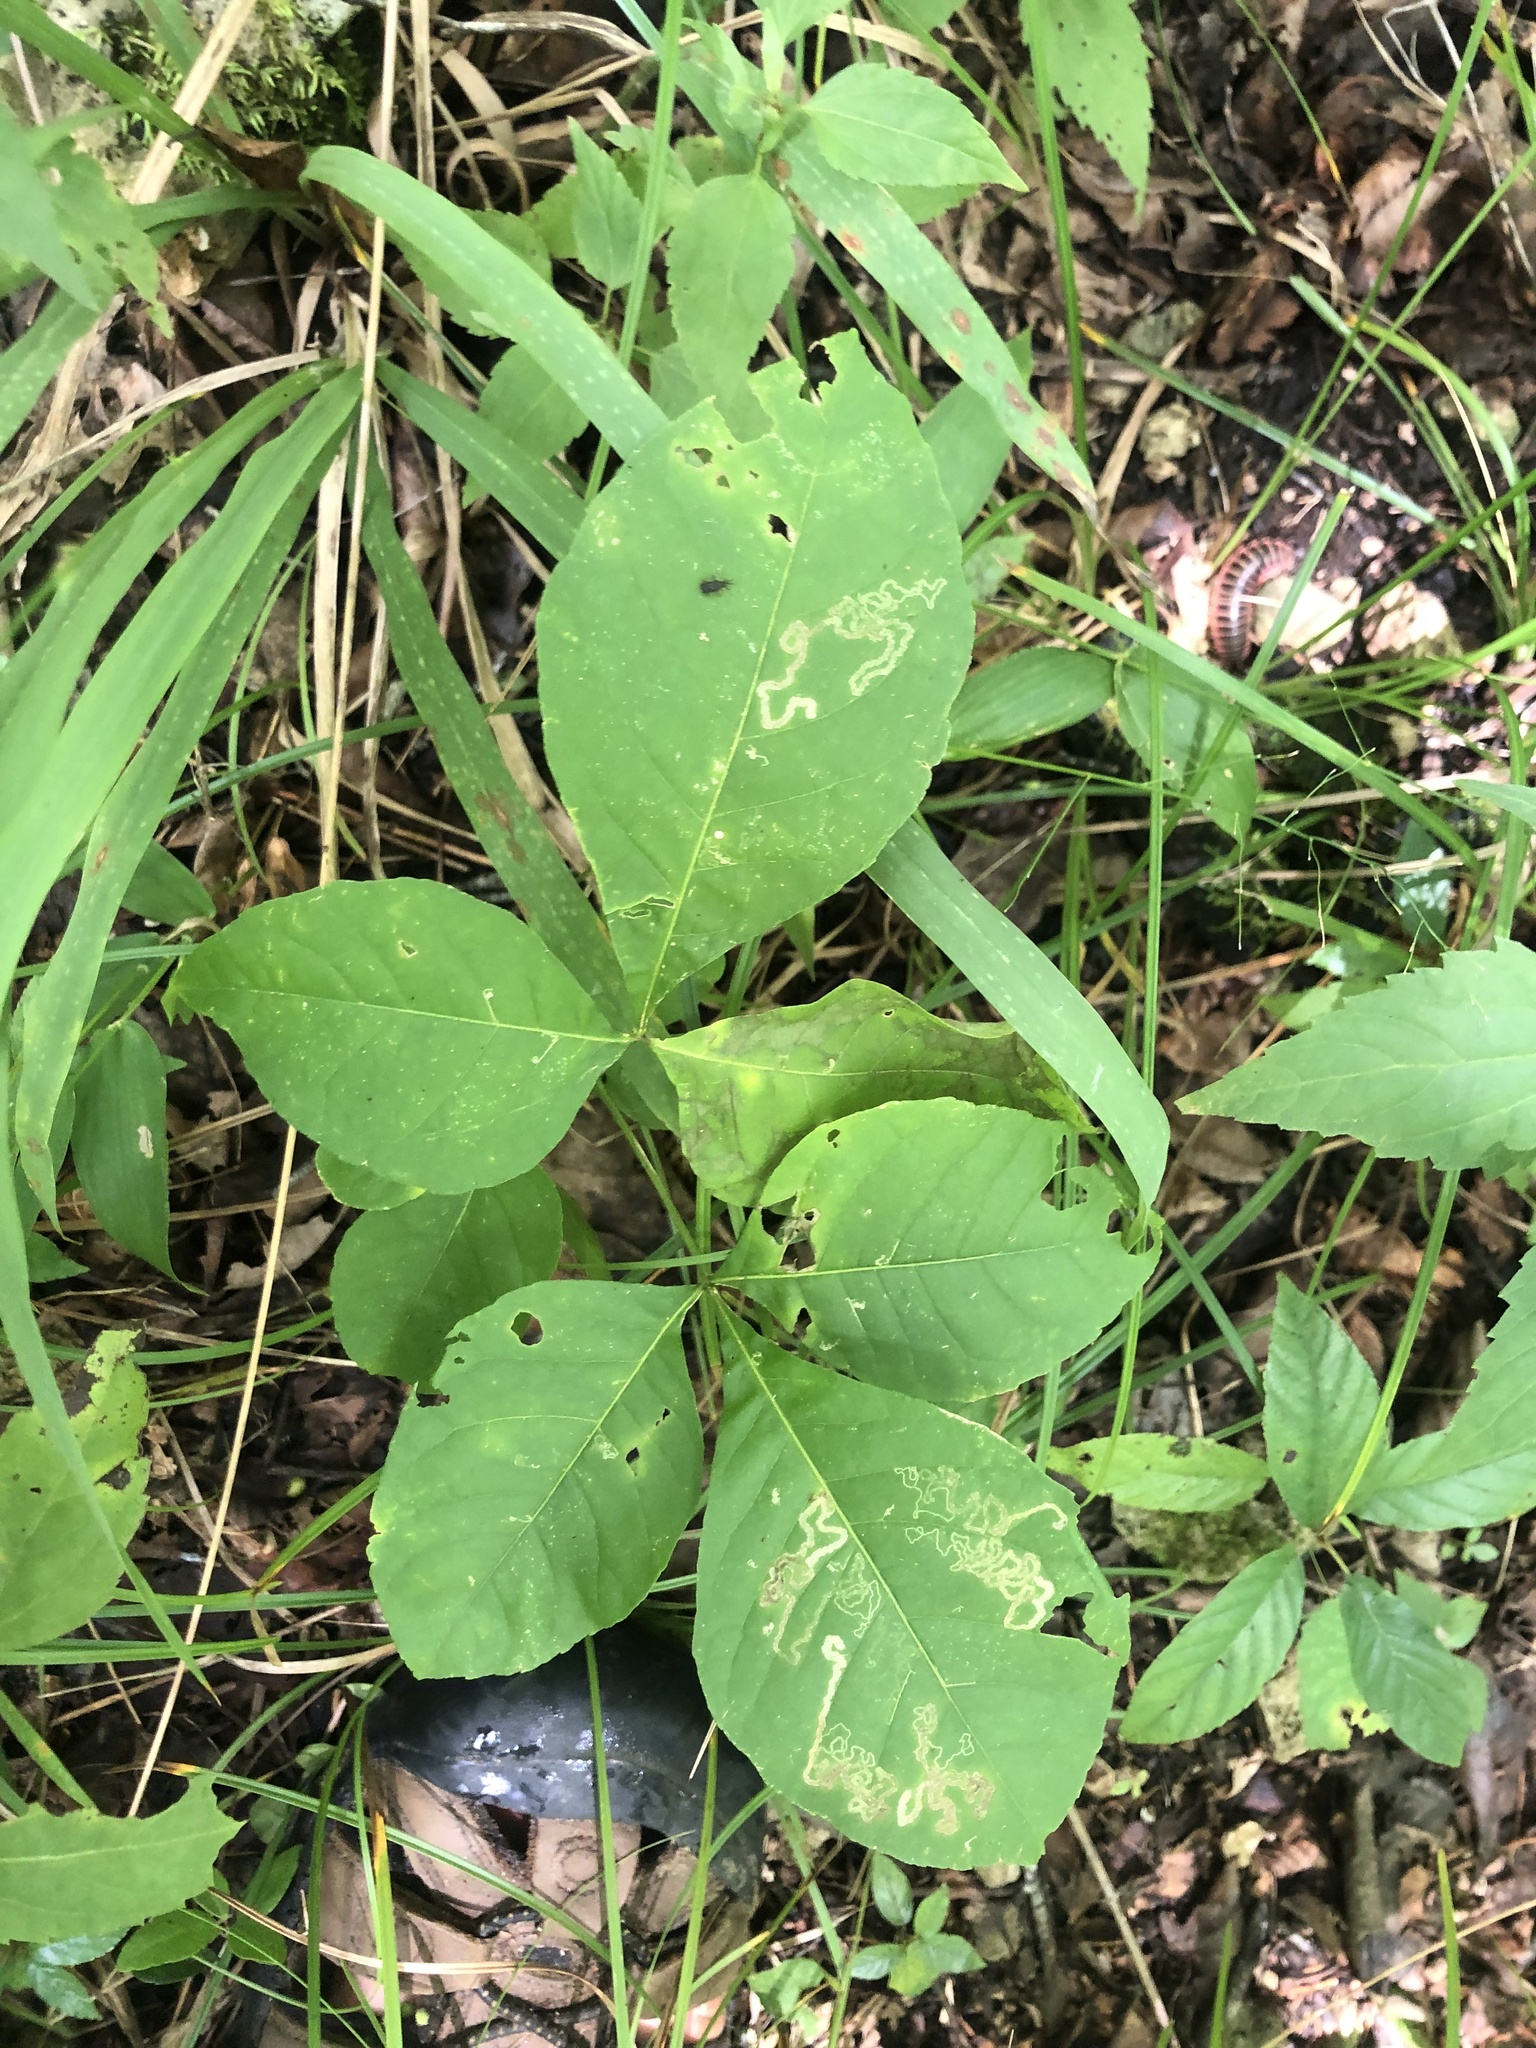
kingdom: Plantae
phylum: Tracheophyta
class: Magnoliopsida
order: Sapindales
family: Rutaceae
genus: Ptelea
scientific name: Ptelea trifoliata
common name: Common hop-tree
